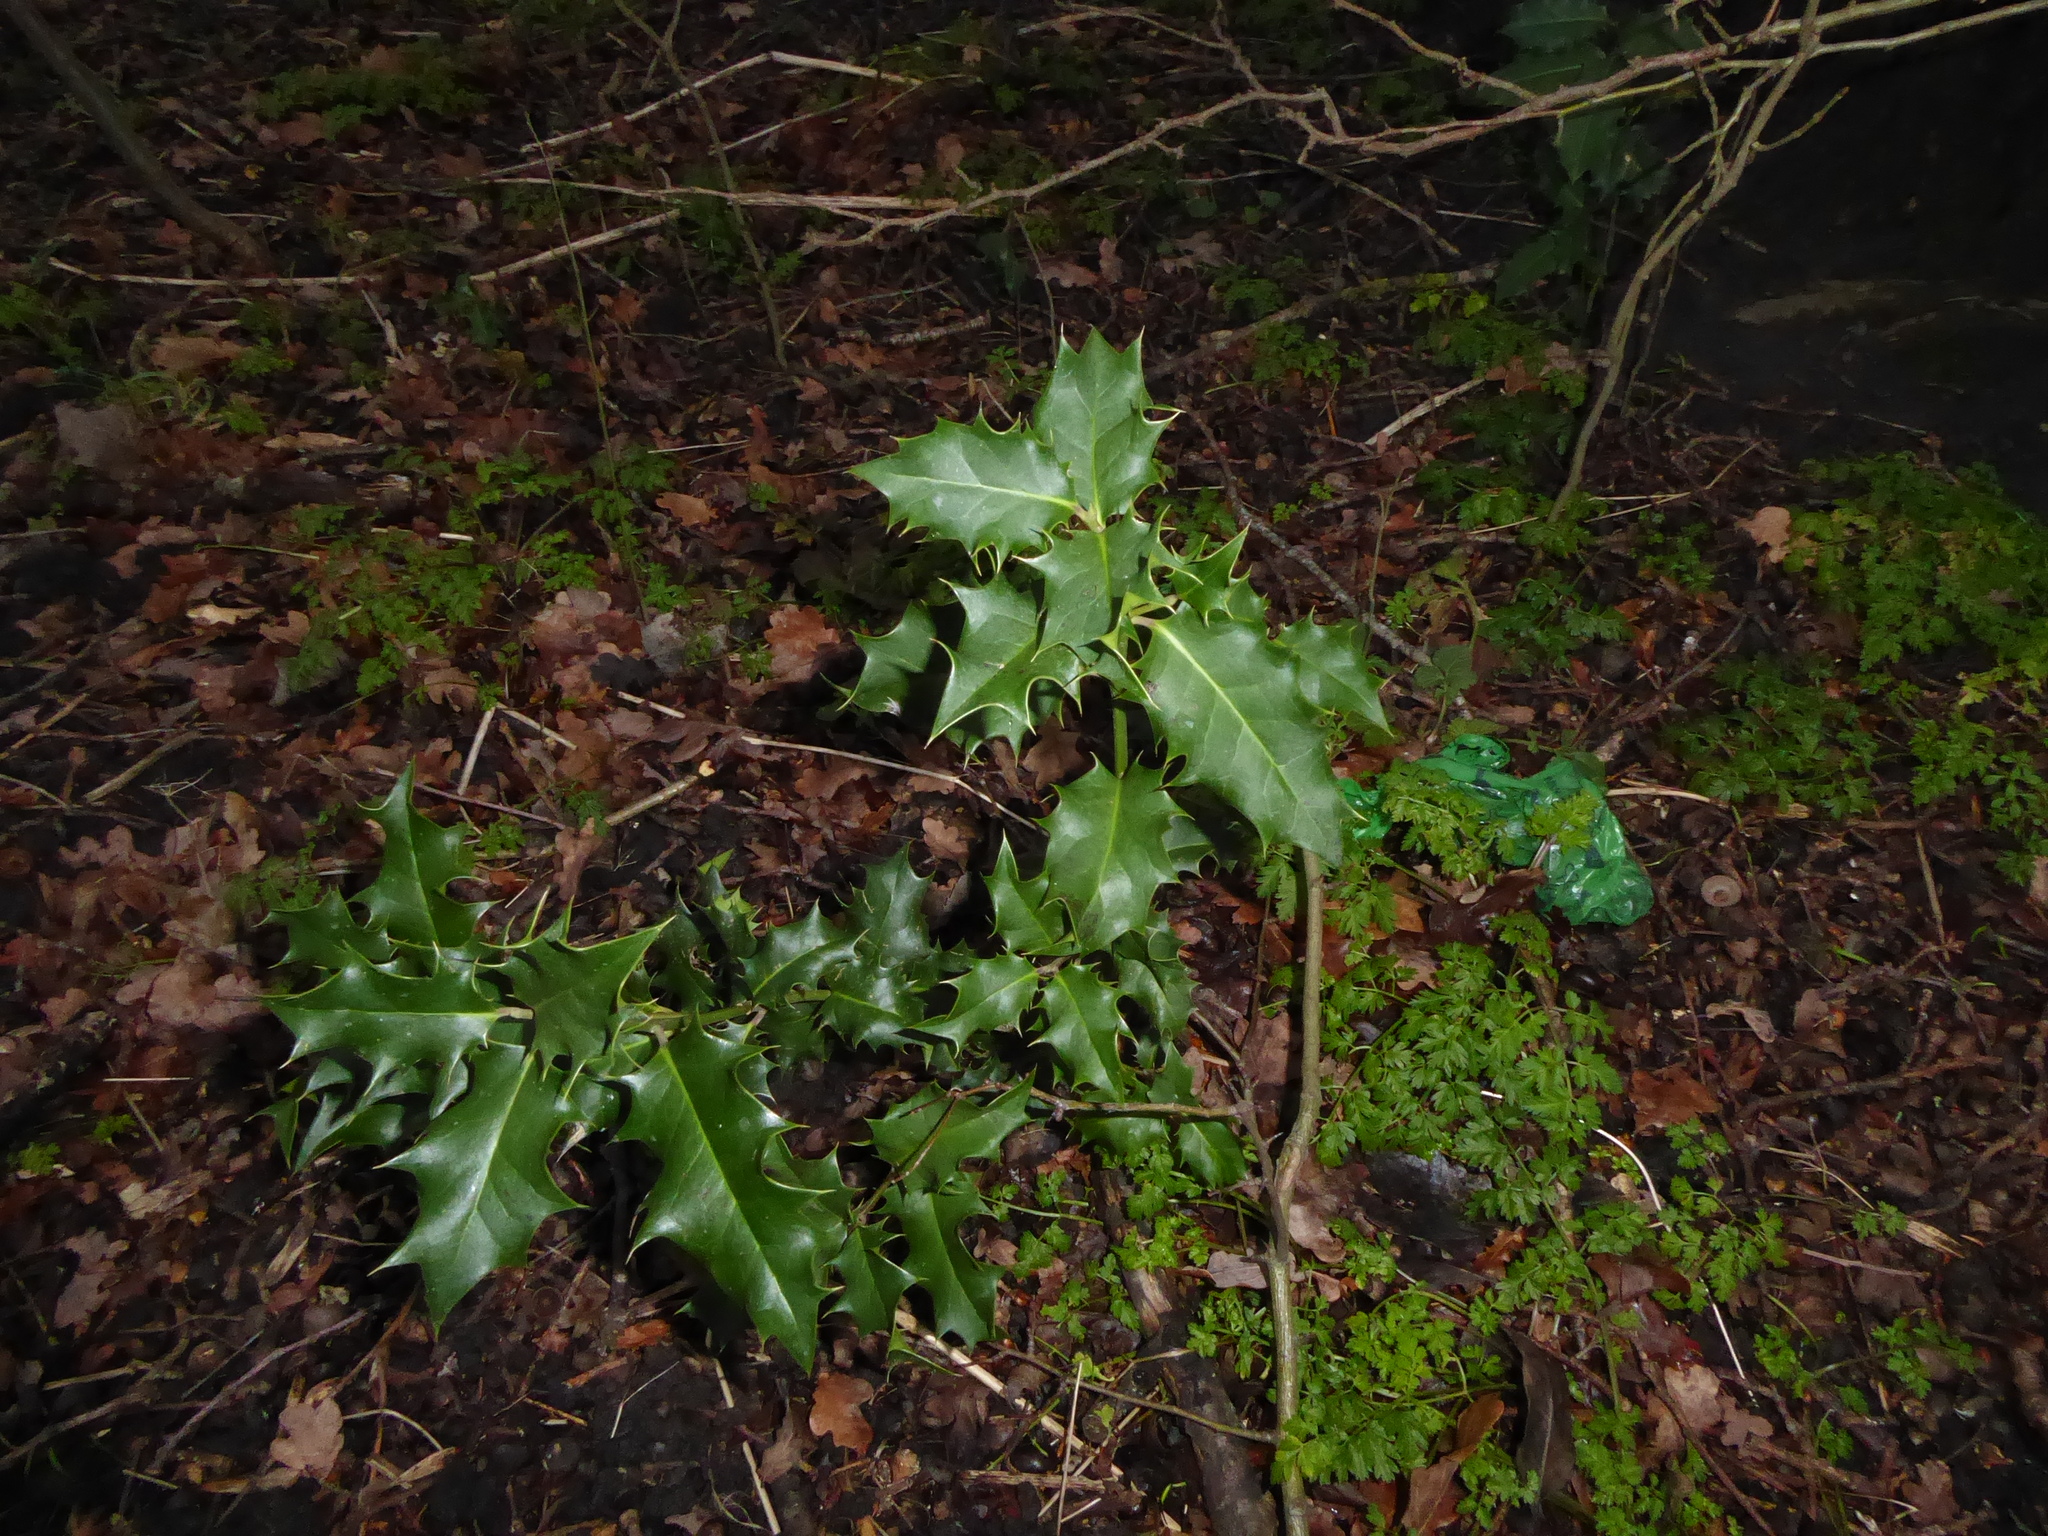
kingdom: Plantae
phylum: Tracheophyta
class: Magnoliopsida
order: Aquifoliales
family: Aquifoliaceae
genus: Ilex
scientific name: Ilex aquifolium
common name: English holly
